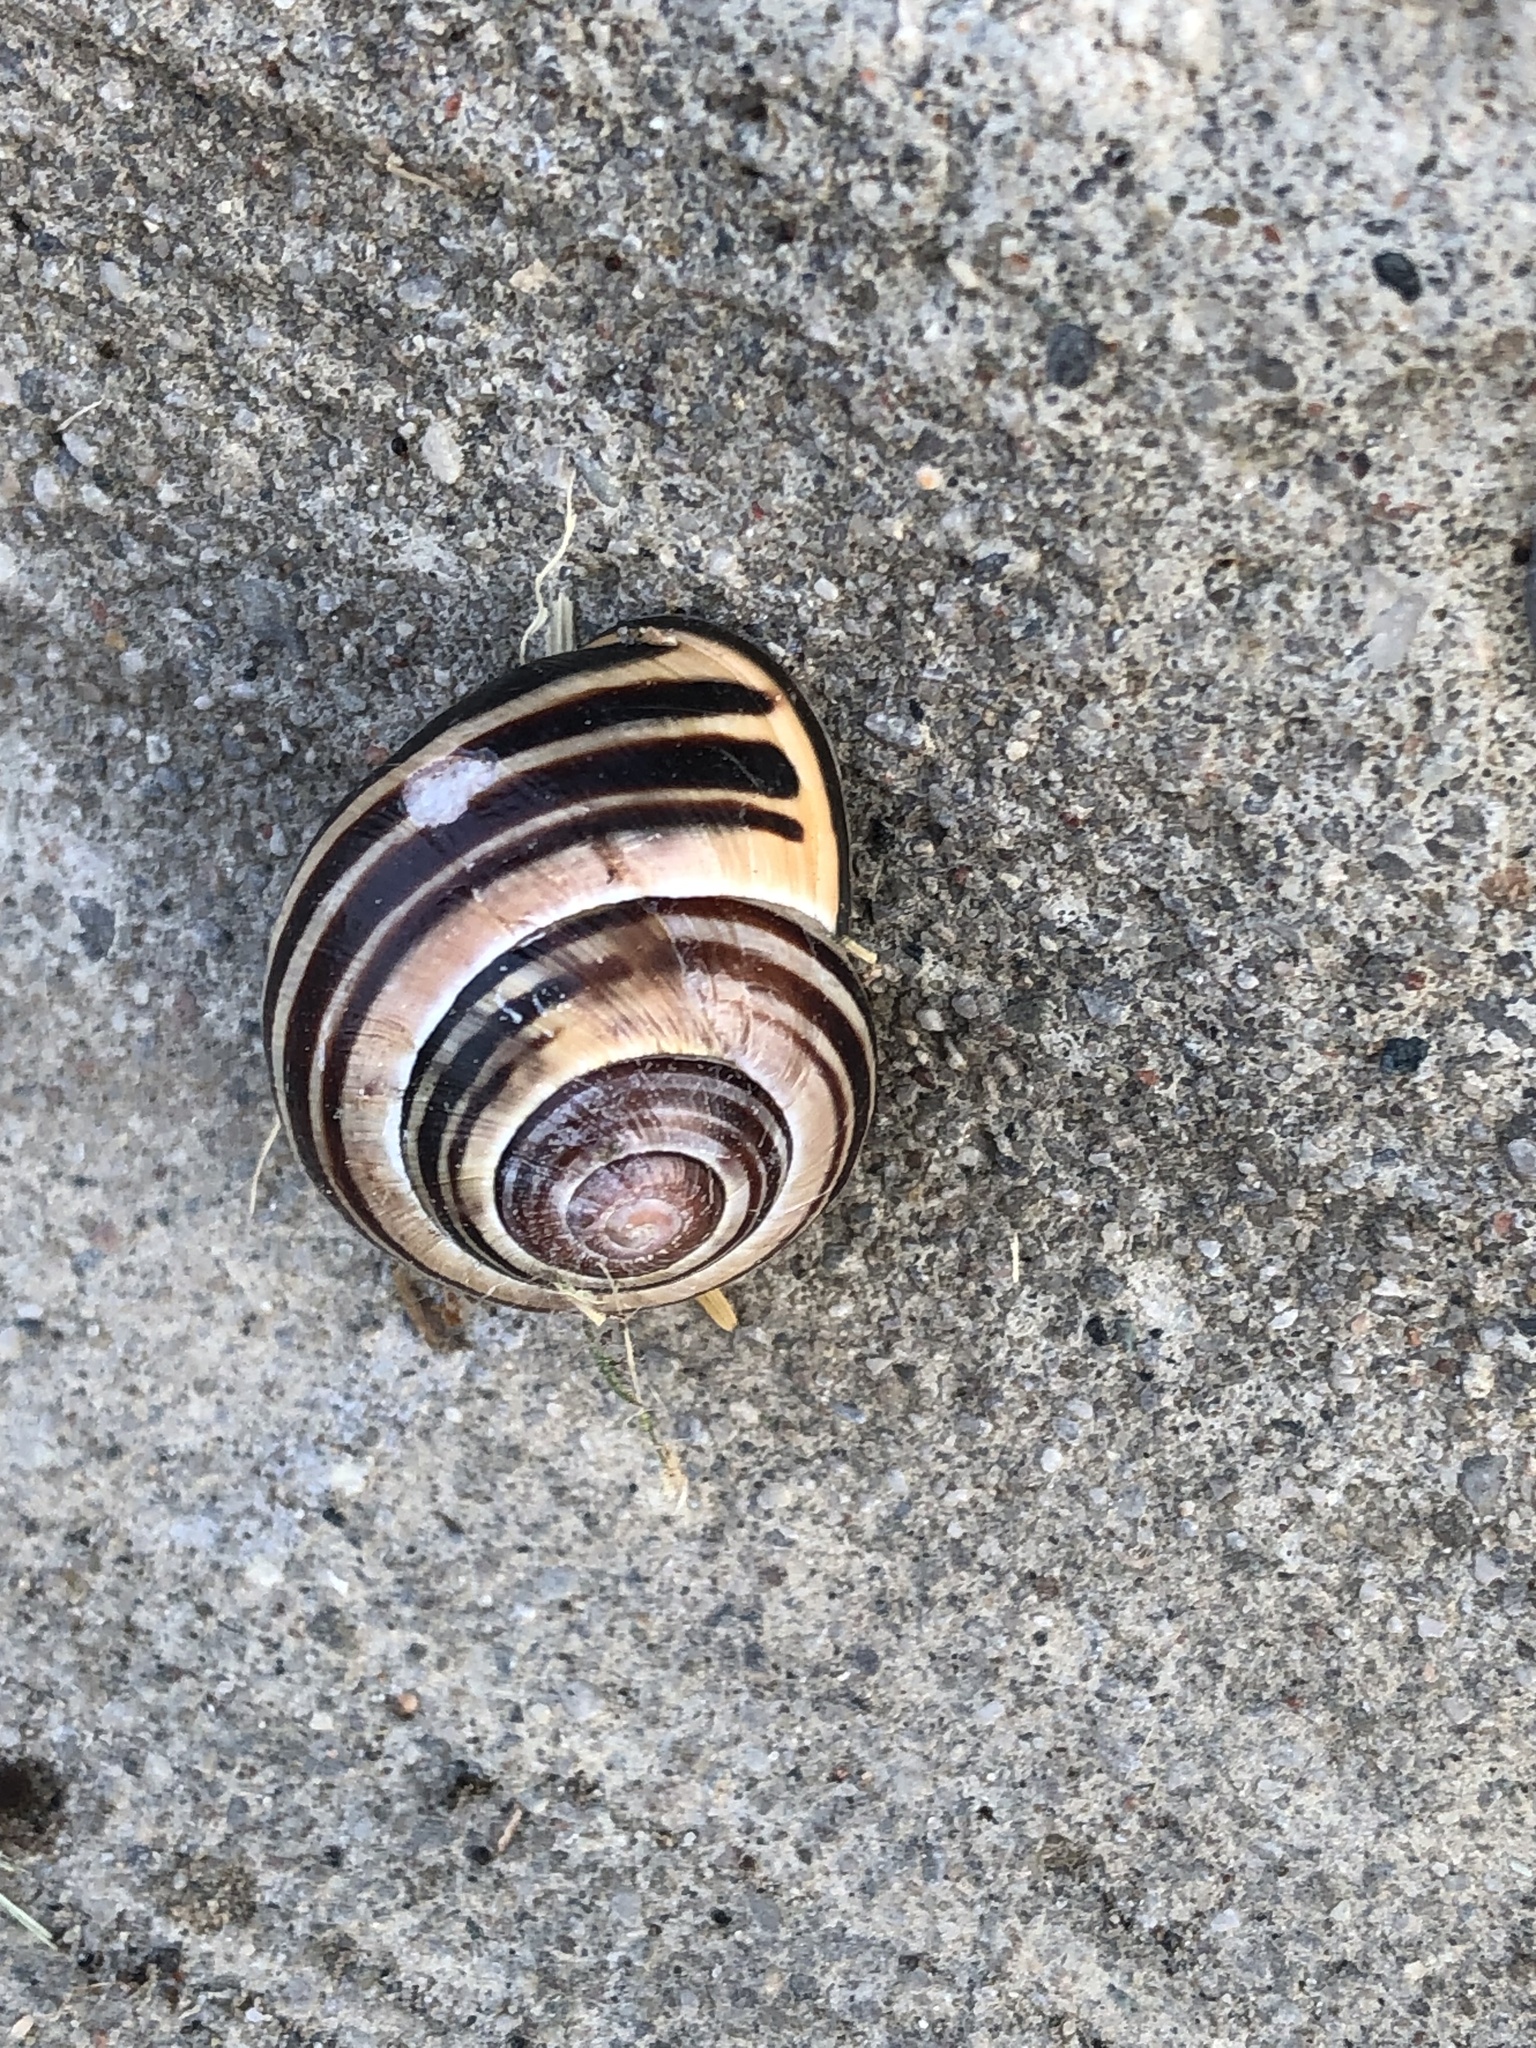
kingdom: Animalia
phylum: Mollusca
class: Gastropoda
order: Stylommatophora
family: Helicidae
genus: Cepaea
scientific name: Cepaea nemoralis
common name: Grovesnail
